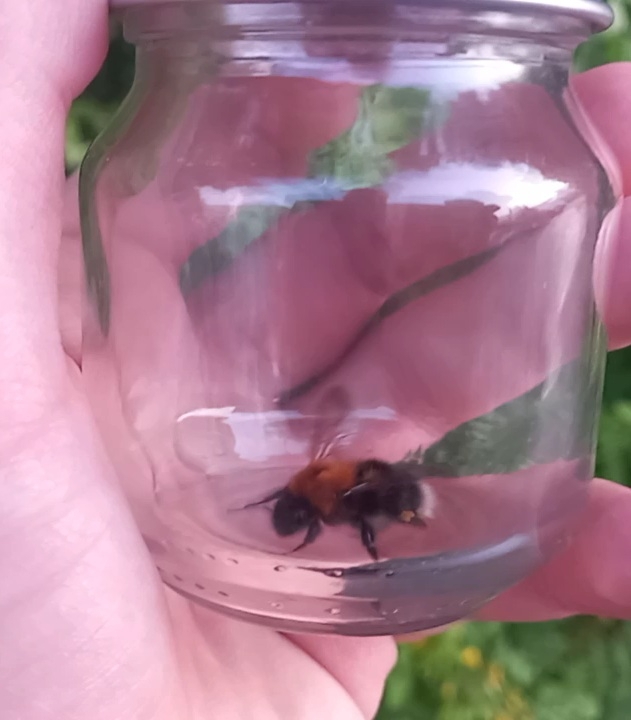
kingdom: Animalia
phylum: Arthropoda
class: Insecta
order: Hymenoptera
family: Apidae
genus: Bombus
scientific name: Bombus hypnorum
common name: New garden bumblebee
